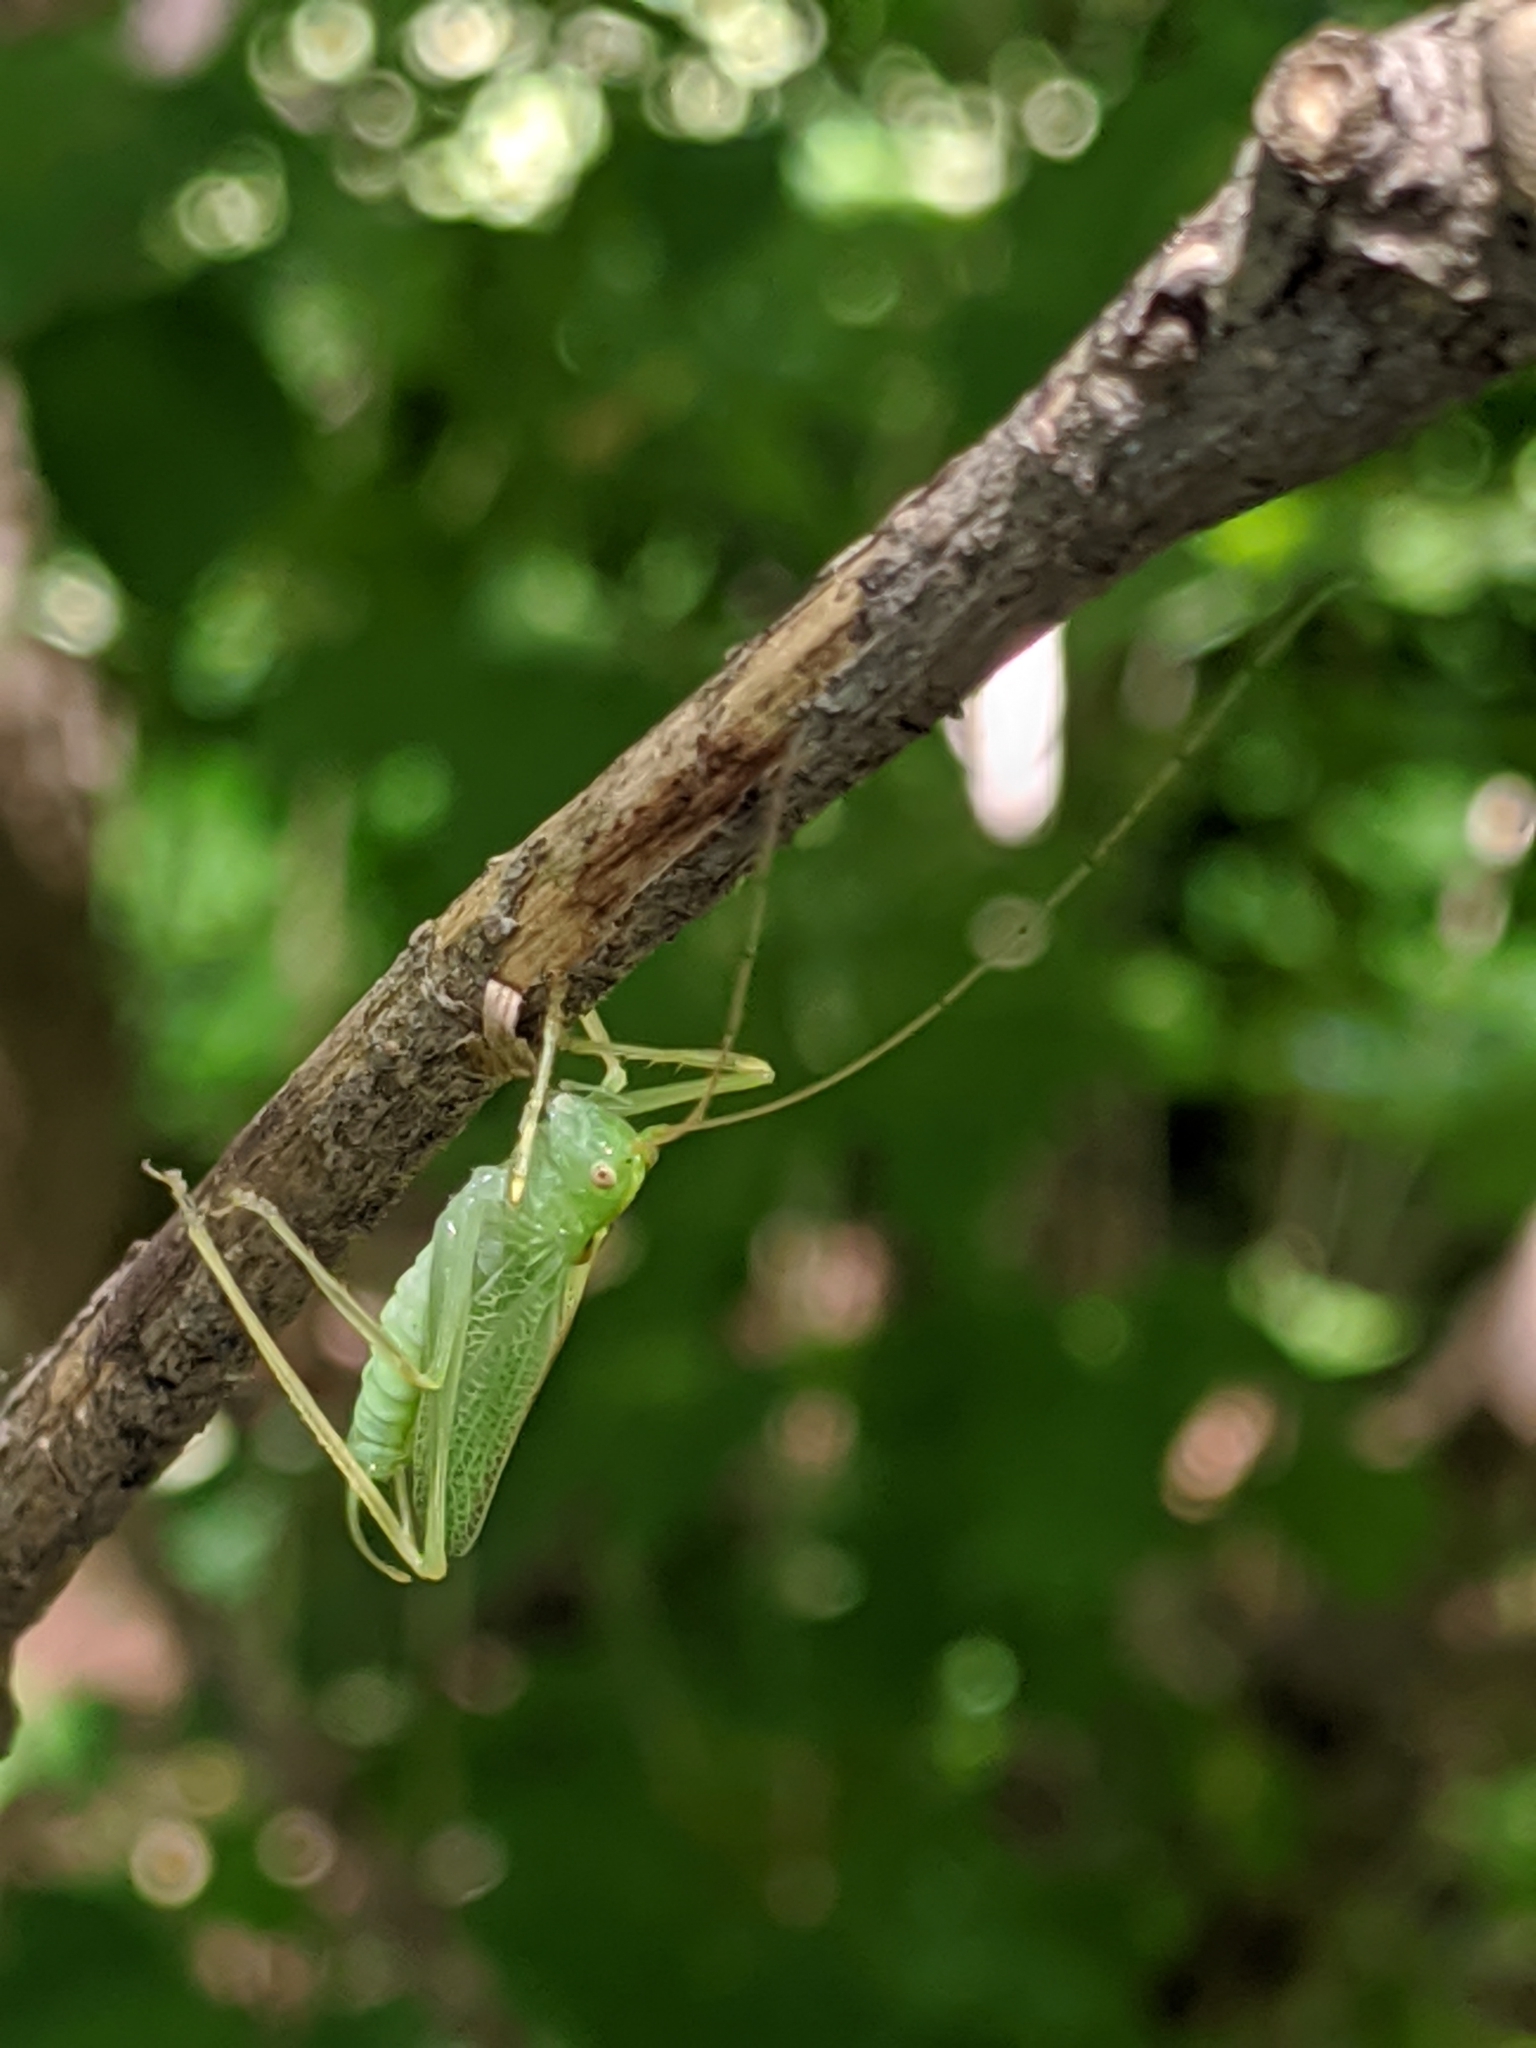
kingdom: Animalia
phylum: Arthropoda
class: Insecta
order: Orthoptera
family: Tettigoniidae
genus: Meconema
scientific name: Meconema thalassinum
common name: Oak bush-cricket
